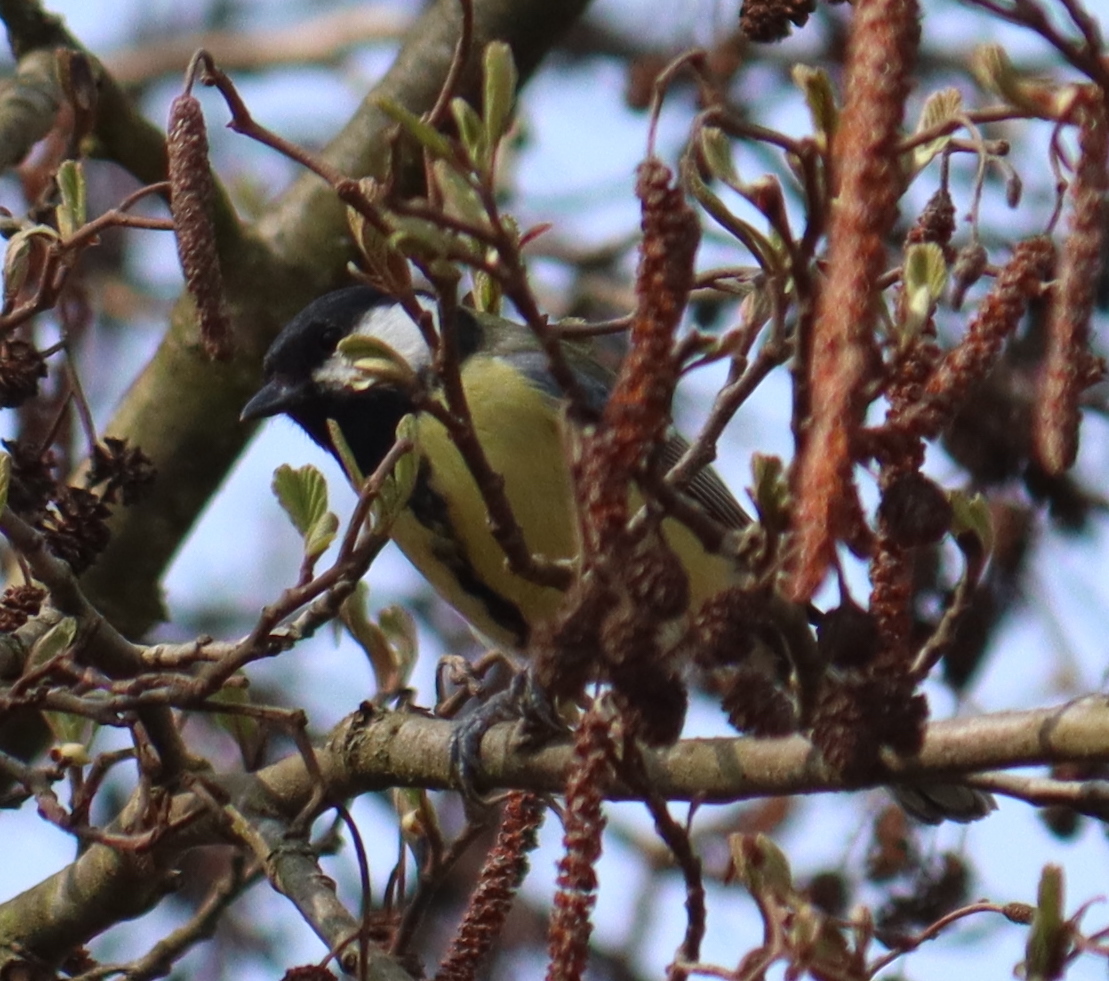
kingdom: Animalia
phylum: Chordata
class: Aves
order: Passeriformes
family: Paridae
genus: Parus
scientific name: Parus major
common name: Great tit
